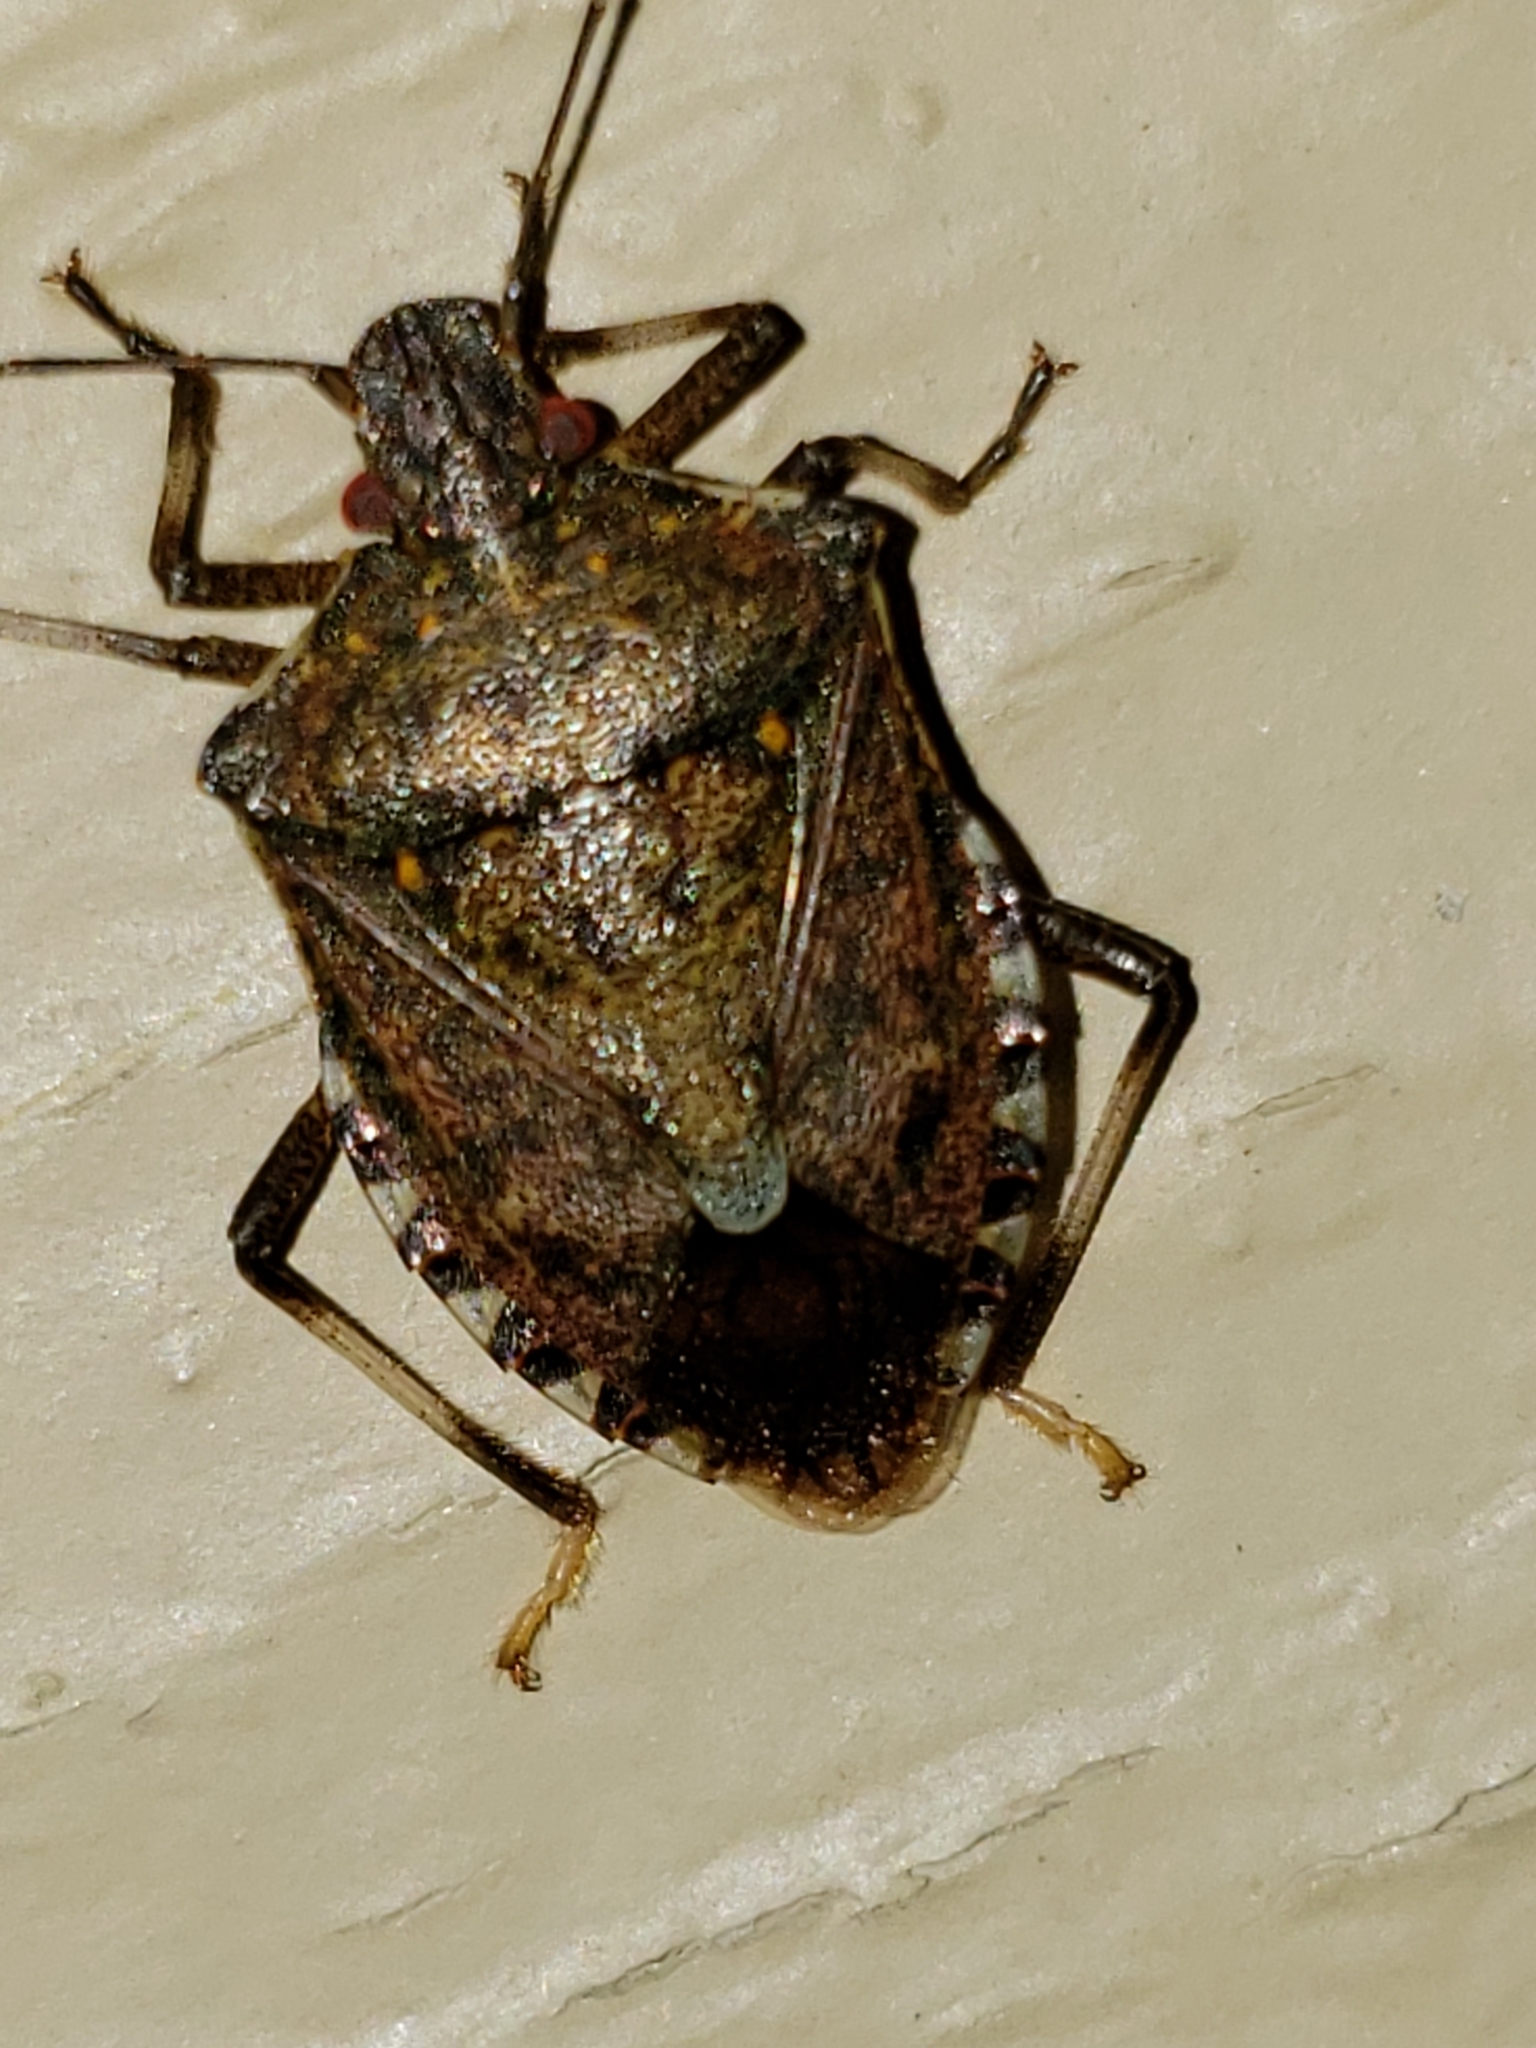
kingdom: Animalia
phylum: Arthropoda
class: Insecta
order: Hemiptera
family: Pentatomidae
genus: Halyomorpha
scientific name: Halyomorpha halys
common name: Brown marmorated stink bug
